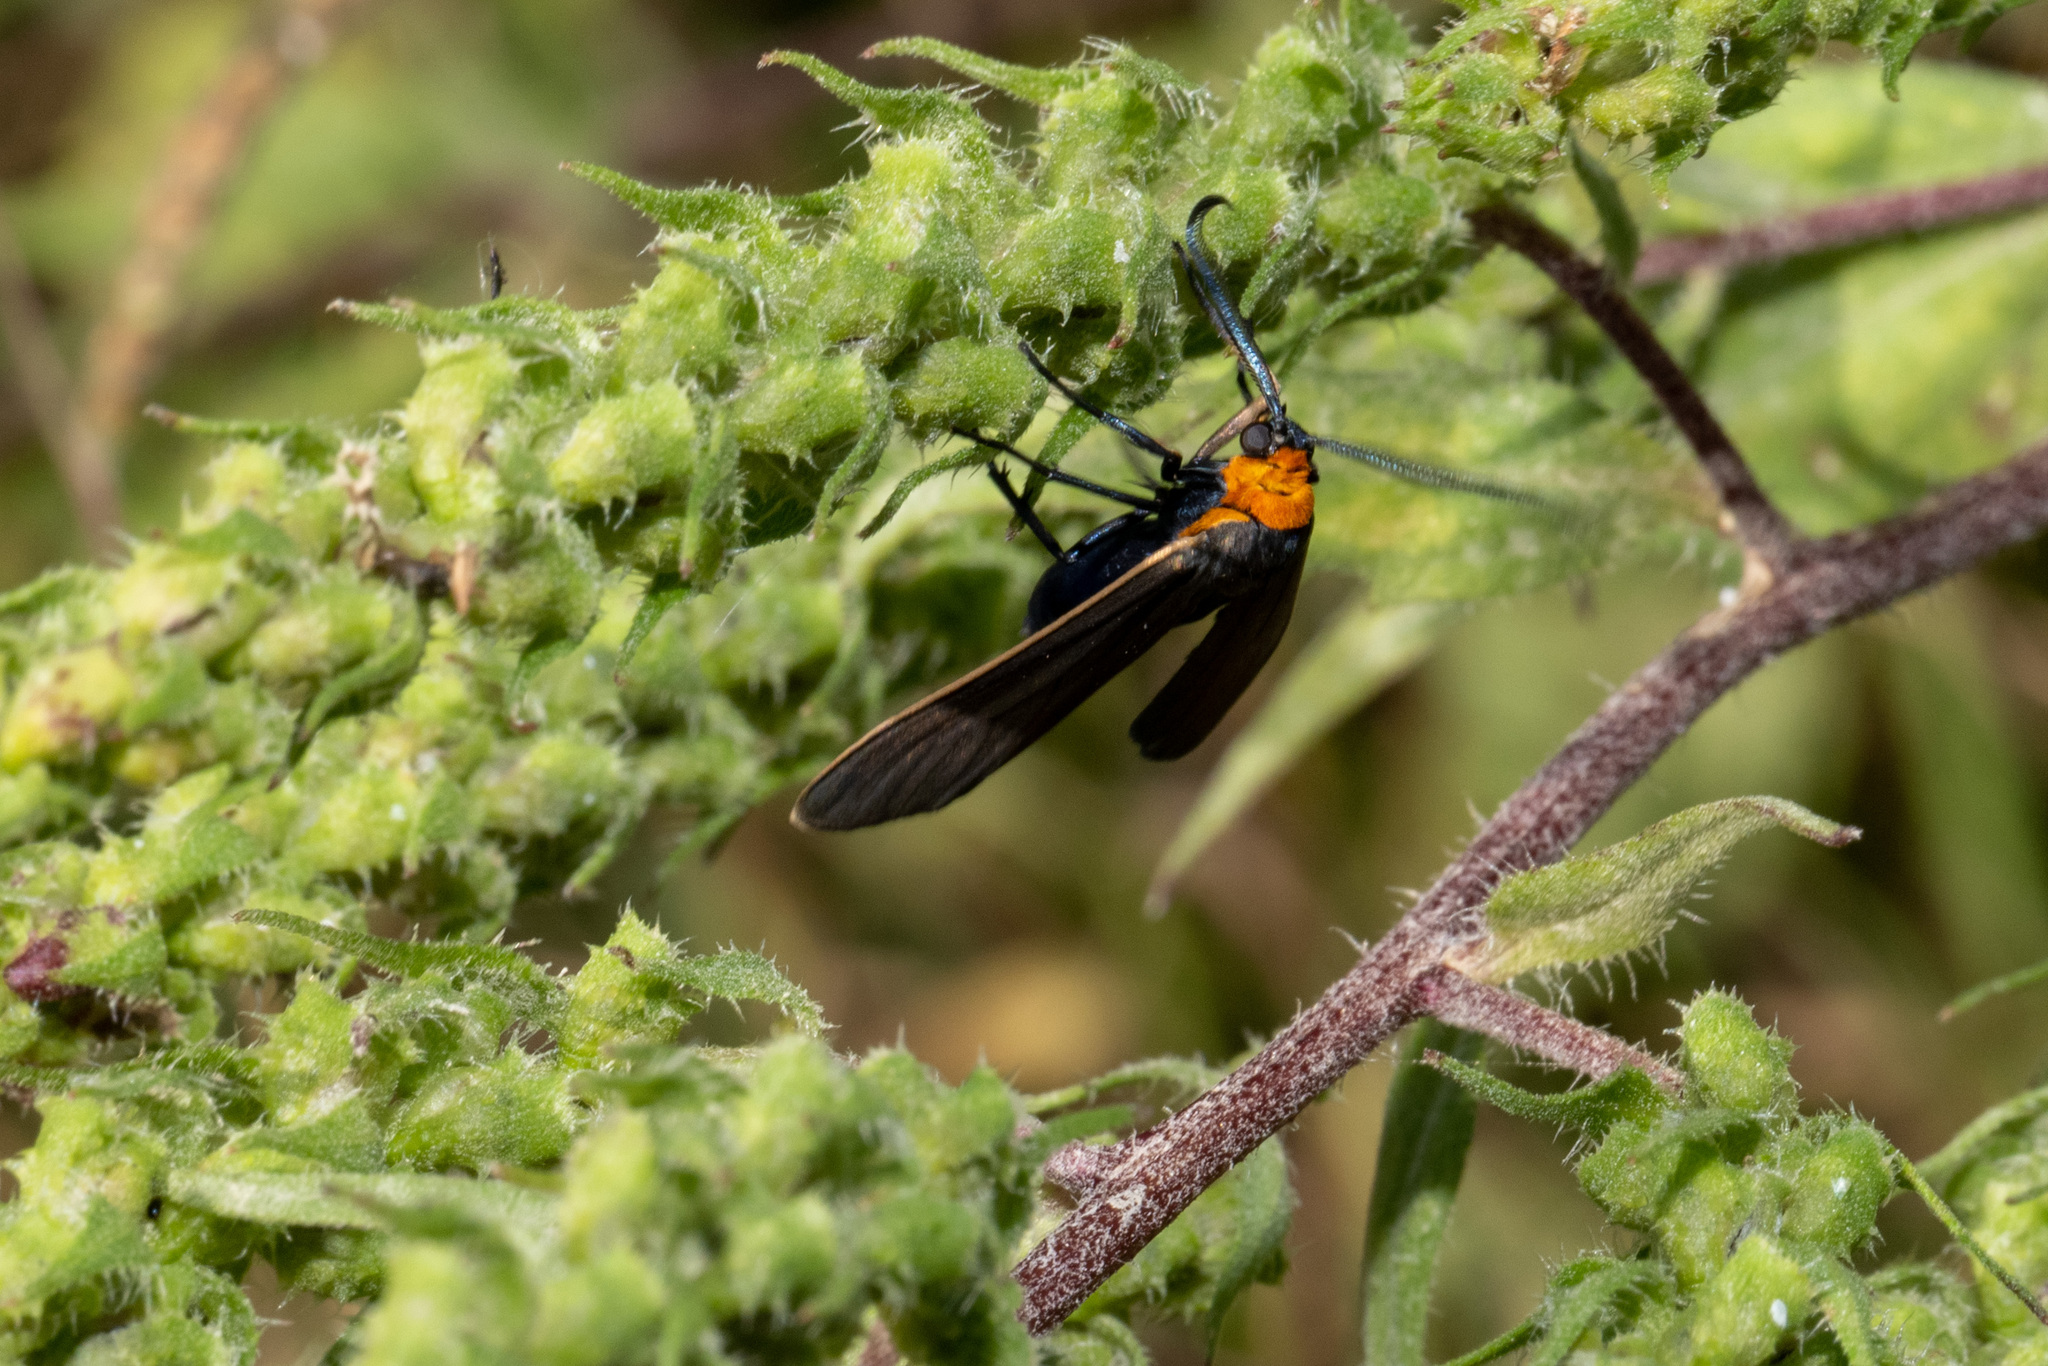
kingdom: Animalia
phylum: Arthropoda
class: Insecta
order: Lepidoptera
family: Erebidae
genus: Cisseps
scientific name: Cisseps fulvicollis
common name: Yellow-collared scape moth
